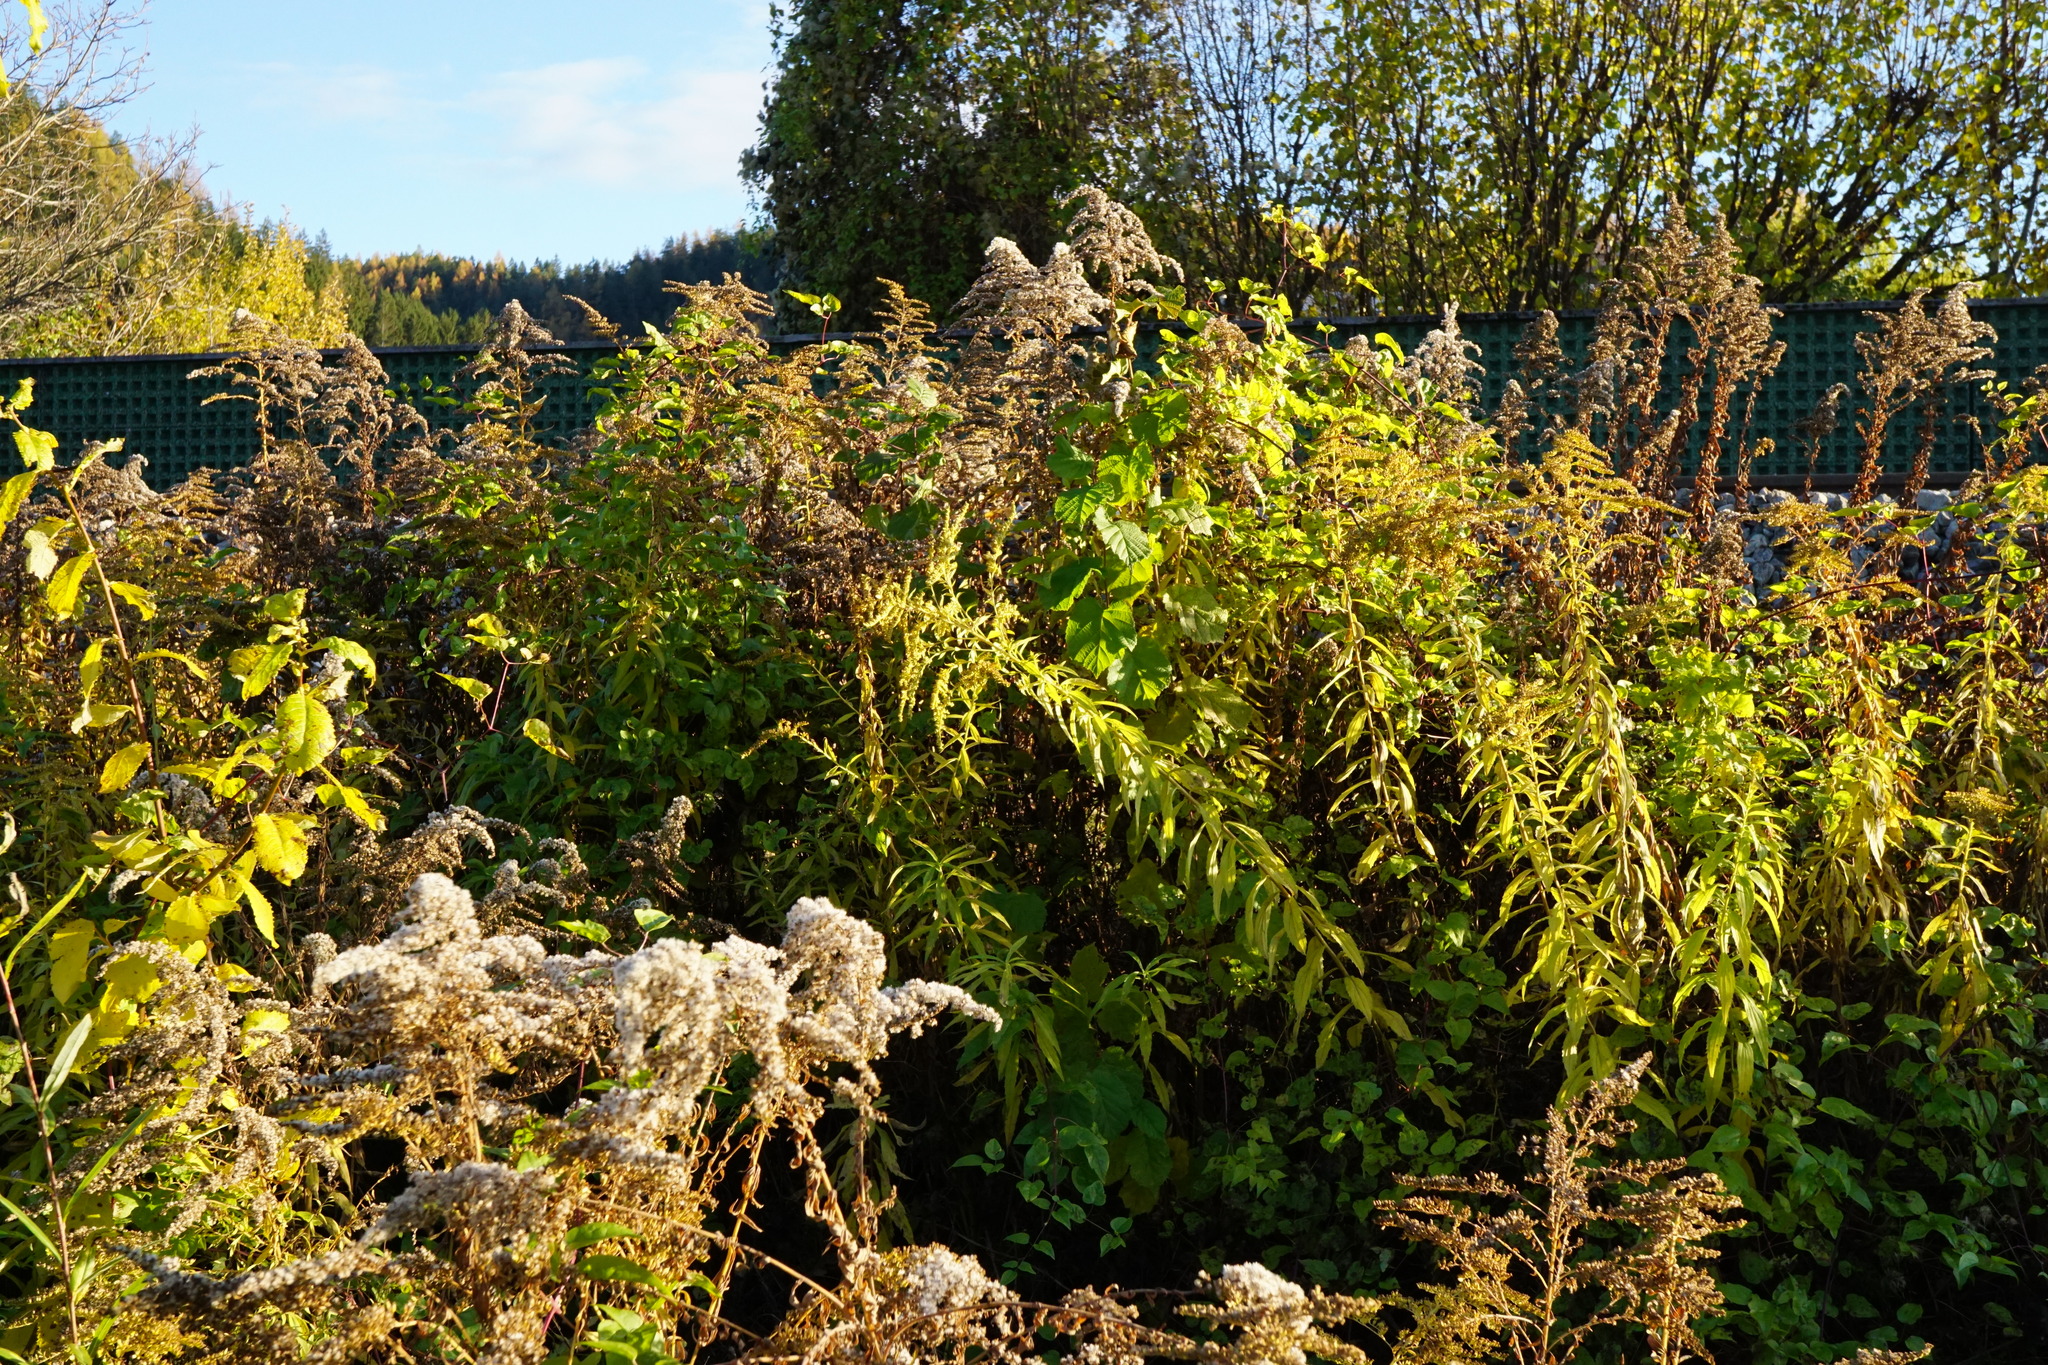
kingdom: Plantae
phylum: Tracheophyta
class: Magnoliopsida
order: Asterales
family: Asteraceae
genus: Solidago
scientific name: Solidago canadensis
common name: Canada goldenrod
